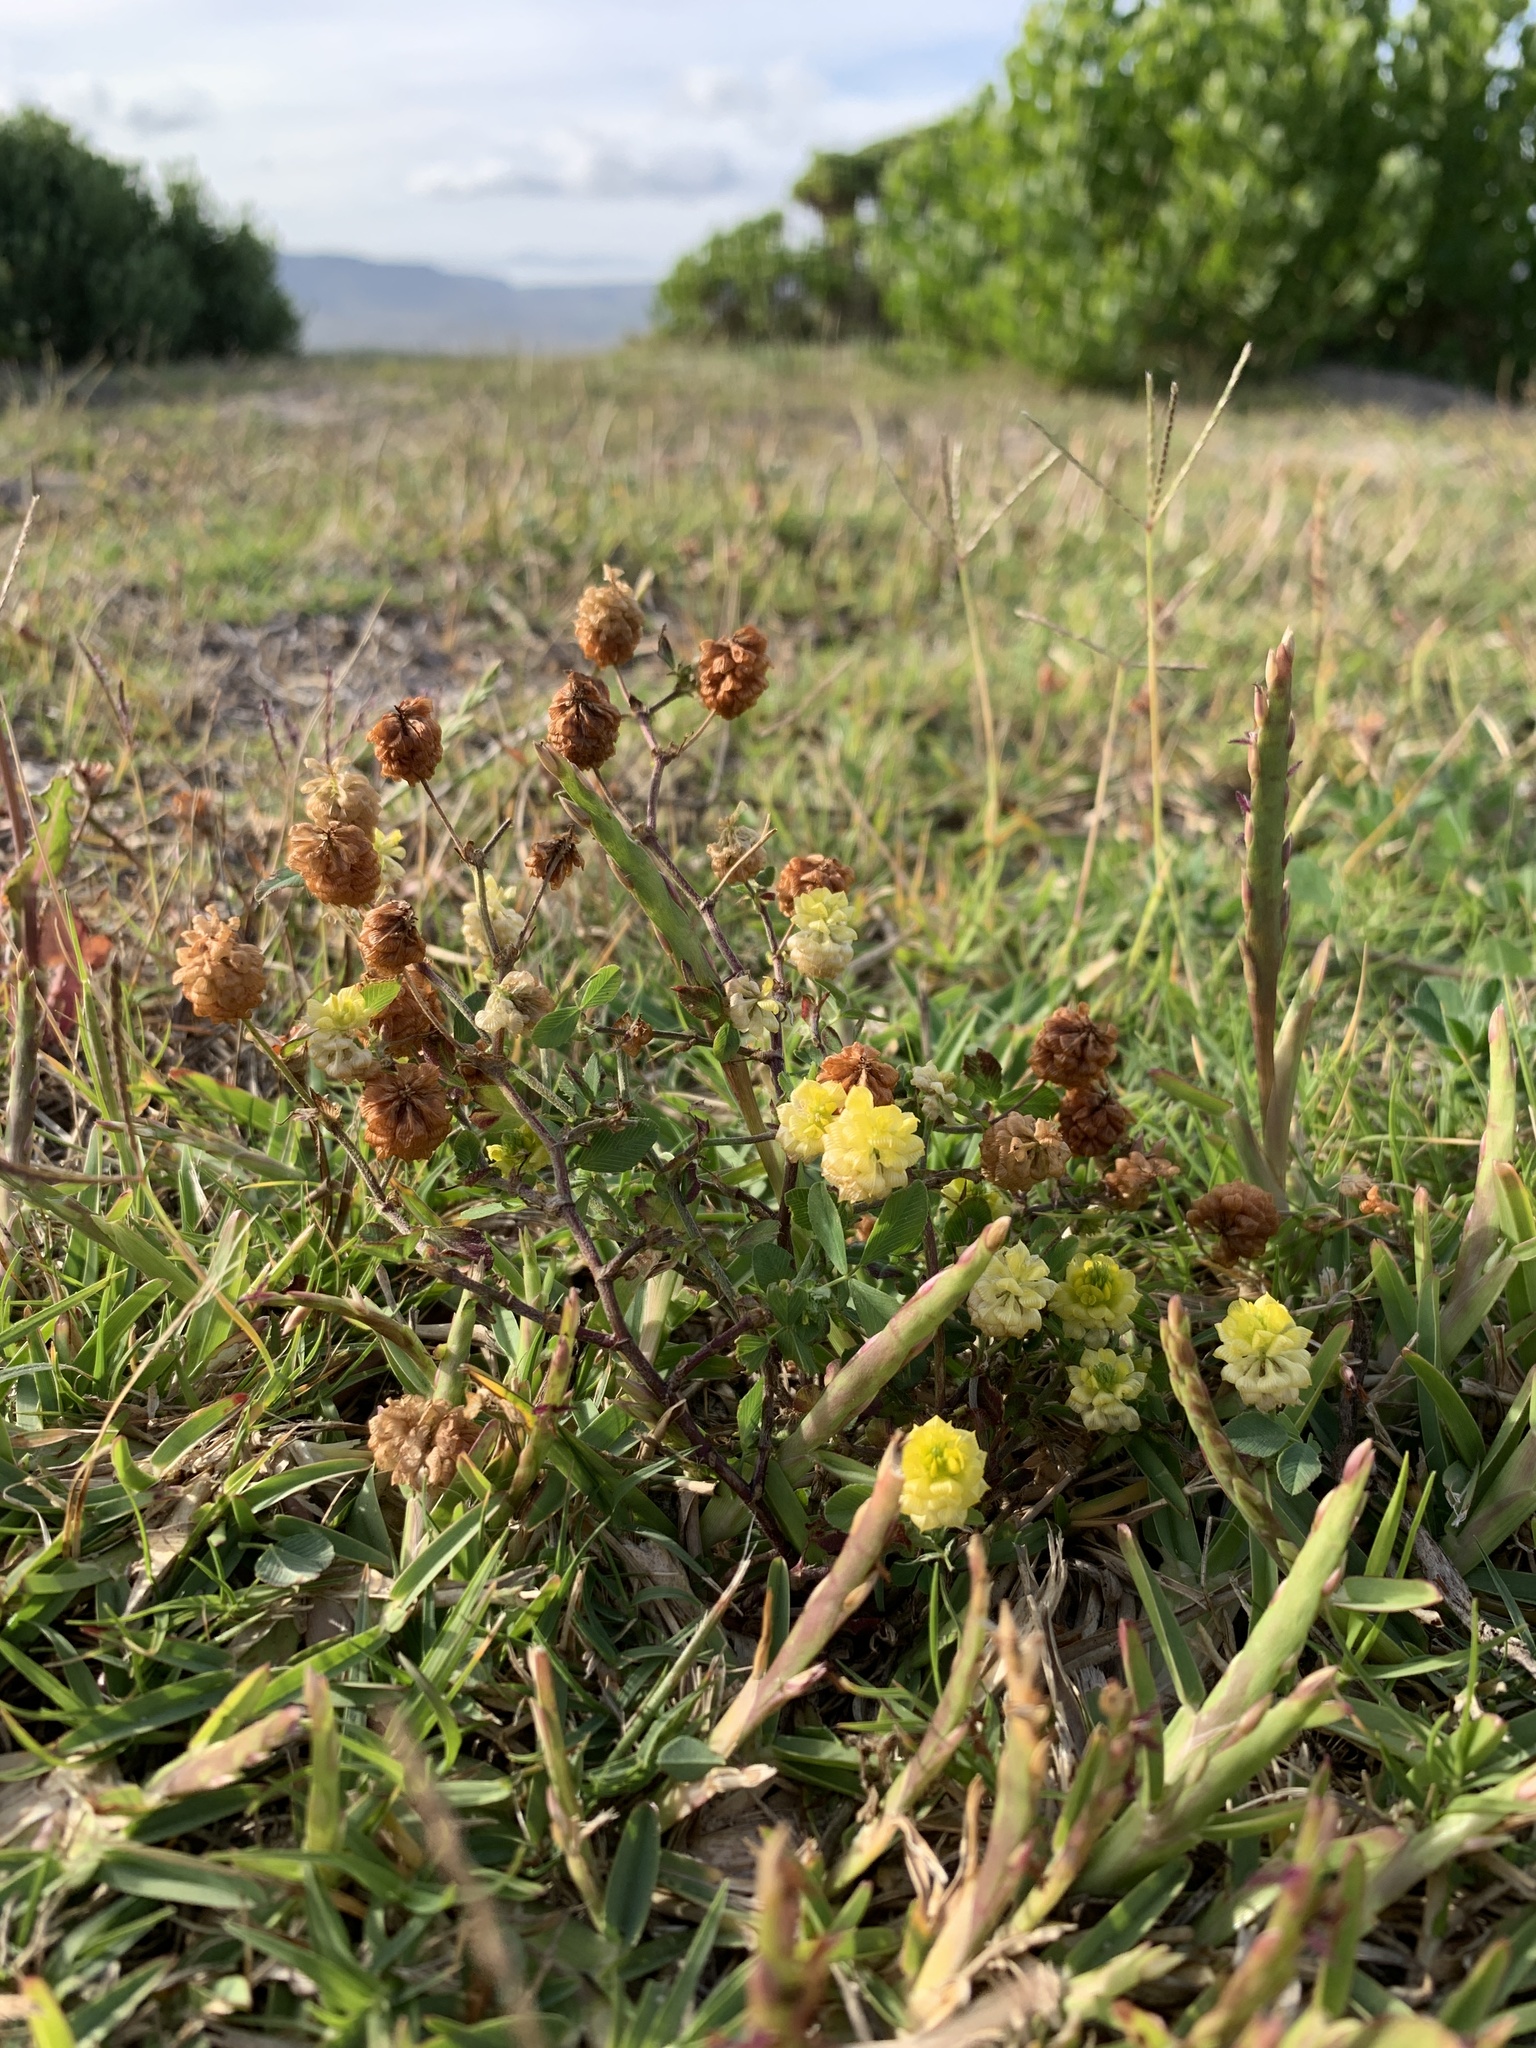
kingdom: Plantae
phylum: Tracheophyta
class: Magnoliopsida
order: Fabales
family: Fabaceae
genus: Trifolium
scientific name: Trifolium campestre
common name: Field clover
